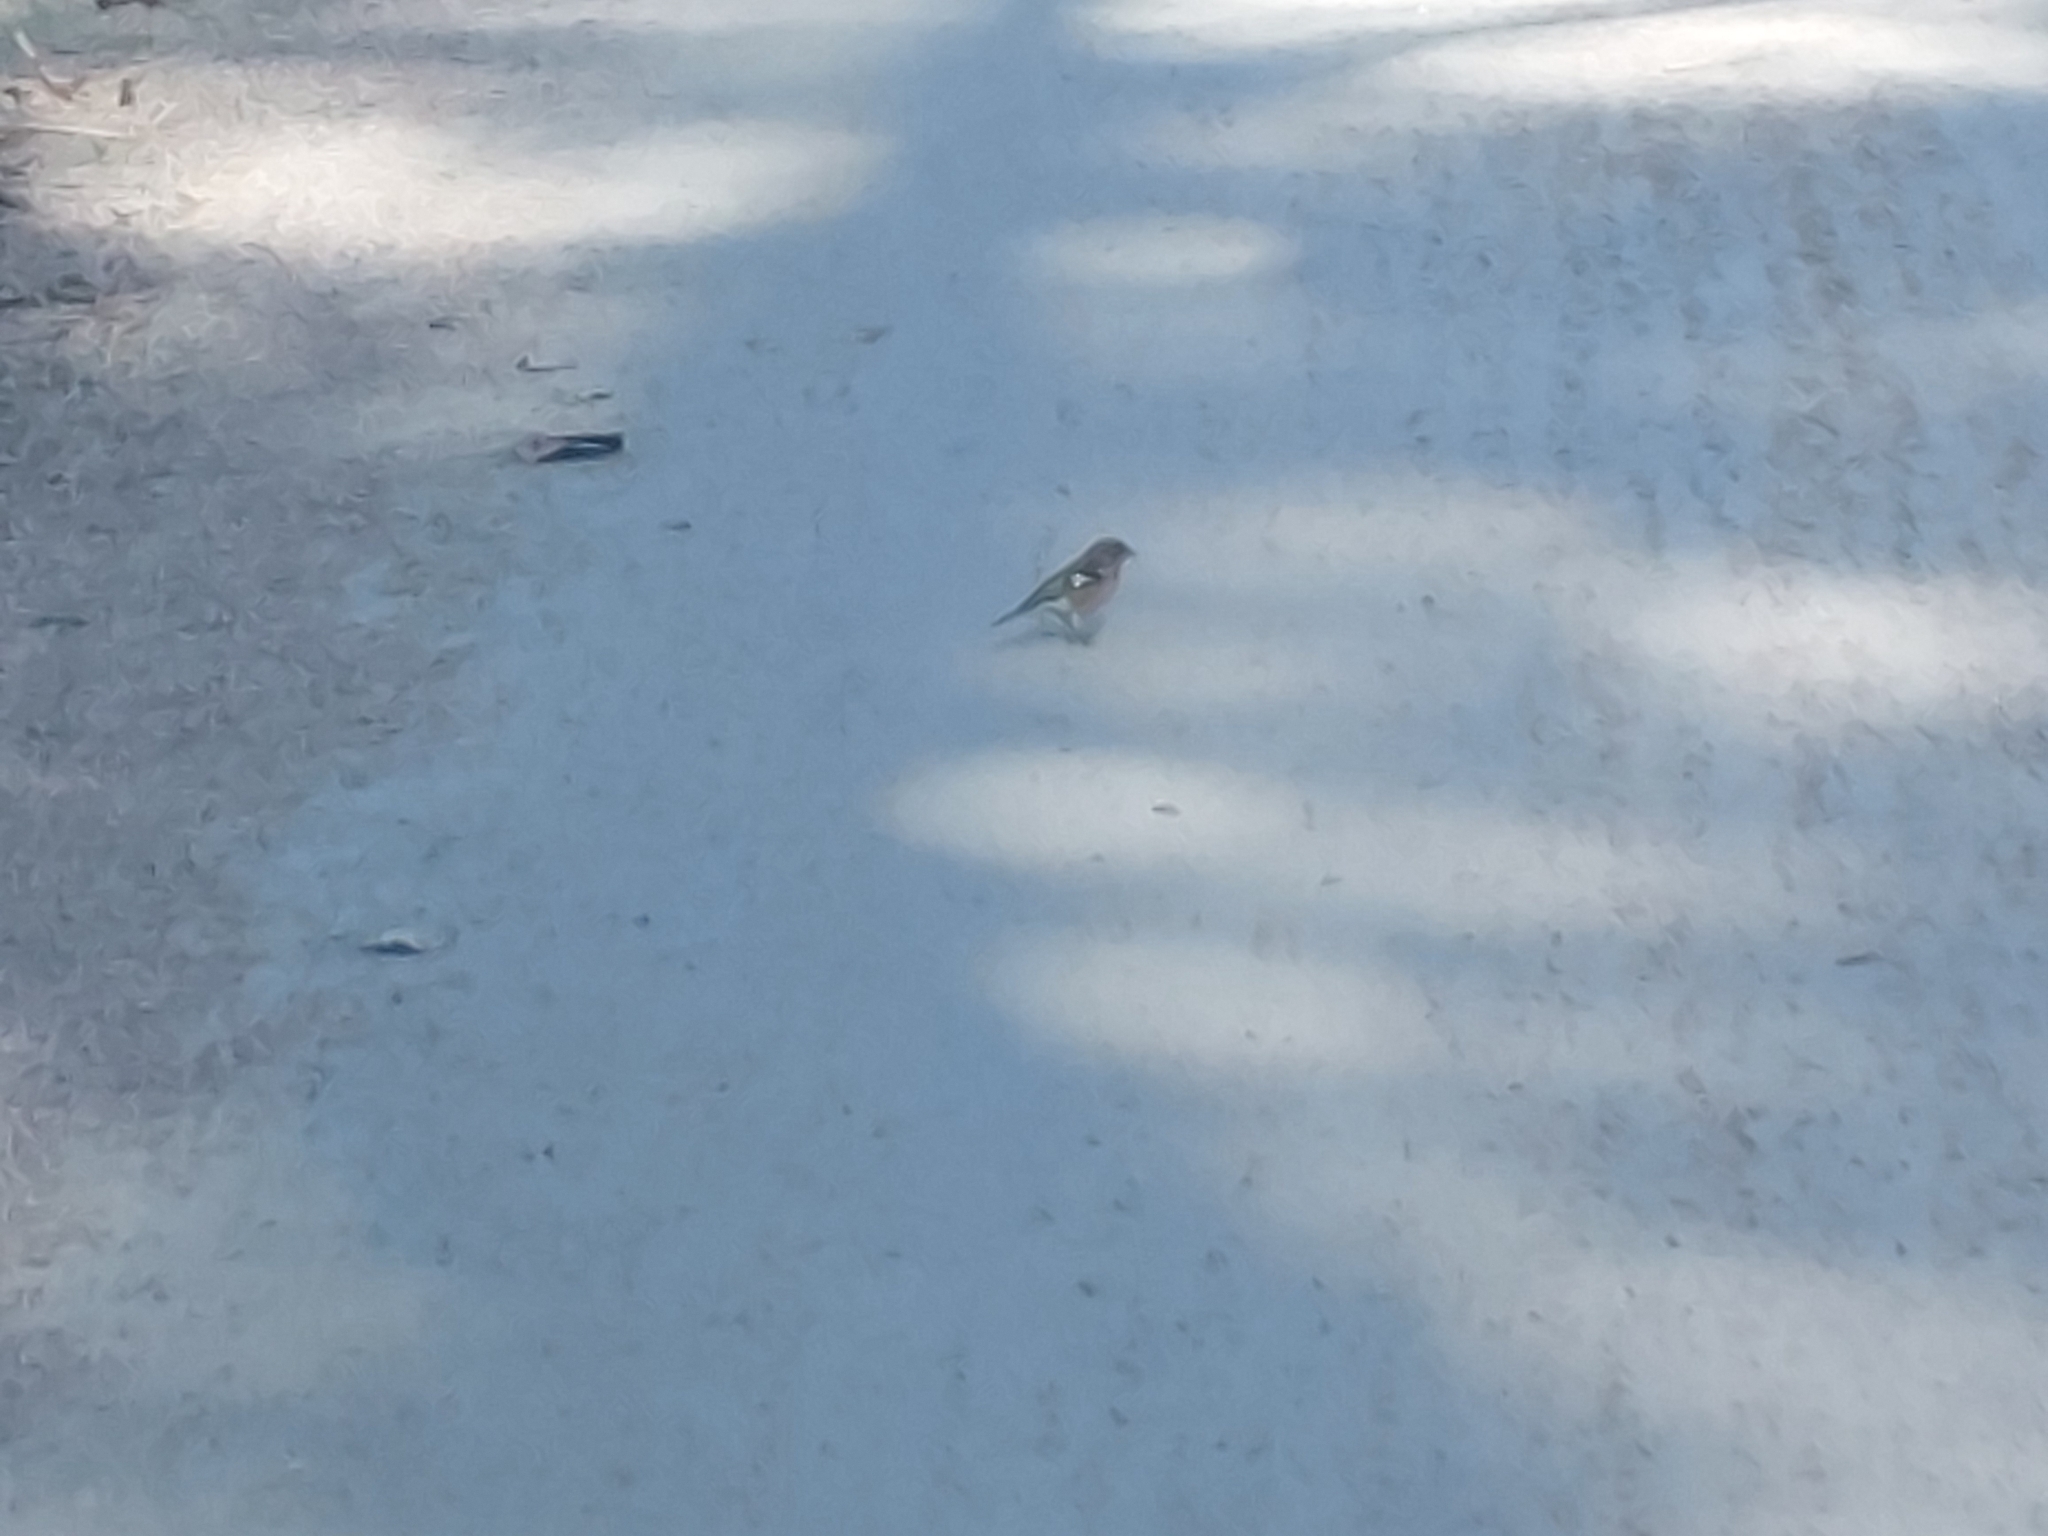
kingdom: Animalia
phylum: Chordata
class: Aves
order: Passeriformes
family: Fringillidae
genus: Fringilla
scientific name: Fringilla coelebs
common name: Common chaffinch
